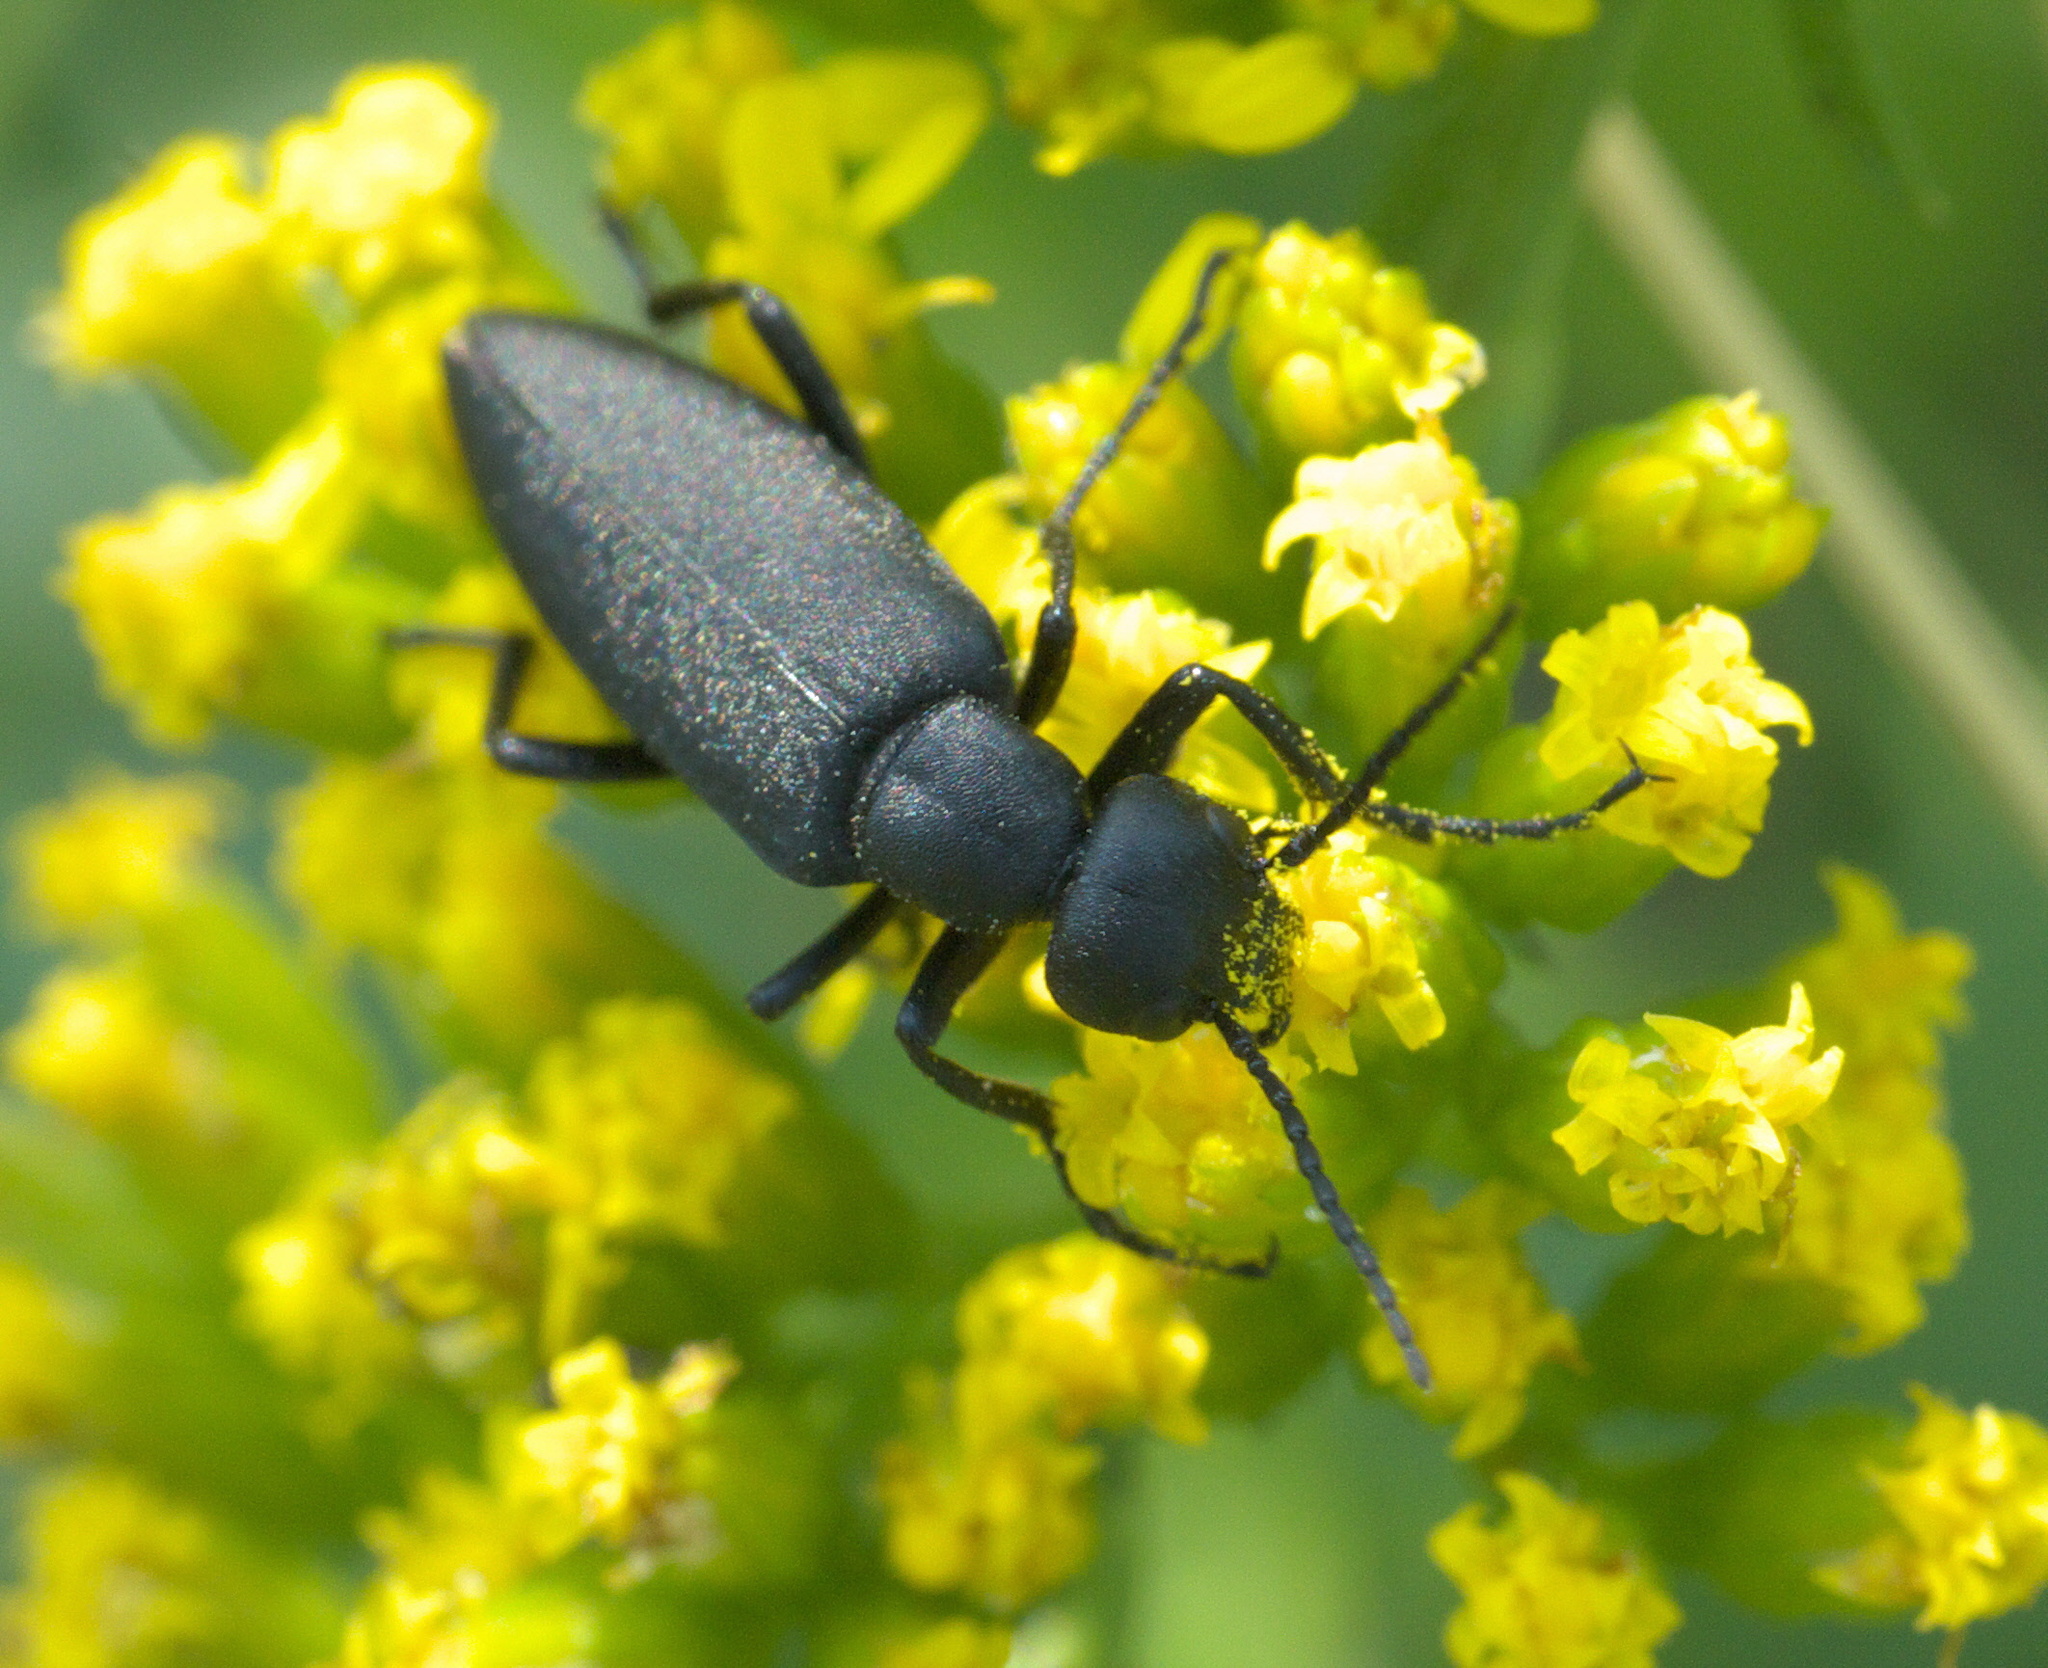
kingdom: Animalia
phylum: Arthropoda
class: Insecta
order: Coleoptera
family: Meloidae
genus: Epicauta
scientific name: Epicauta pensylvanica
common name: Black blister beetle
